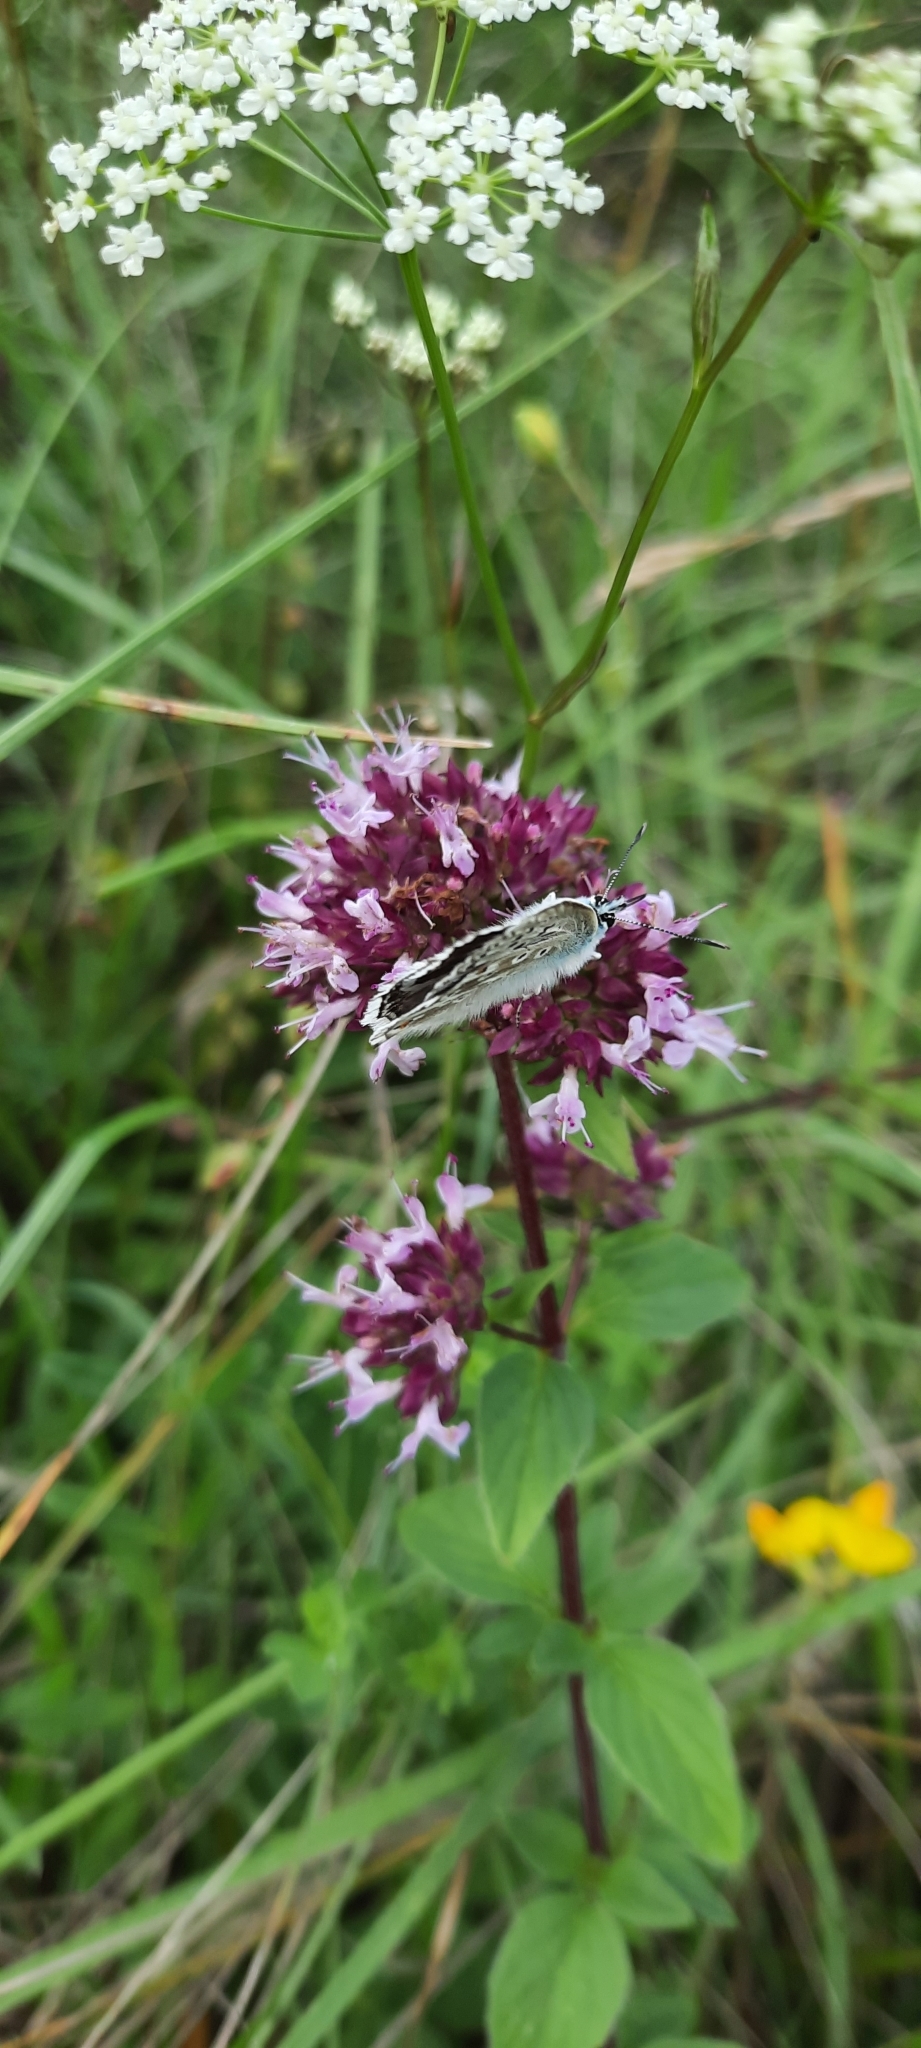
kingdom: Animalia
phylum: Arthropoda
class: Insecta
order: Lepidoptera
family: Lycaenidae
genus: Lysandra
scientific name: Lysandra coridon
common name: Chalkhill blue
